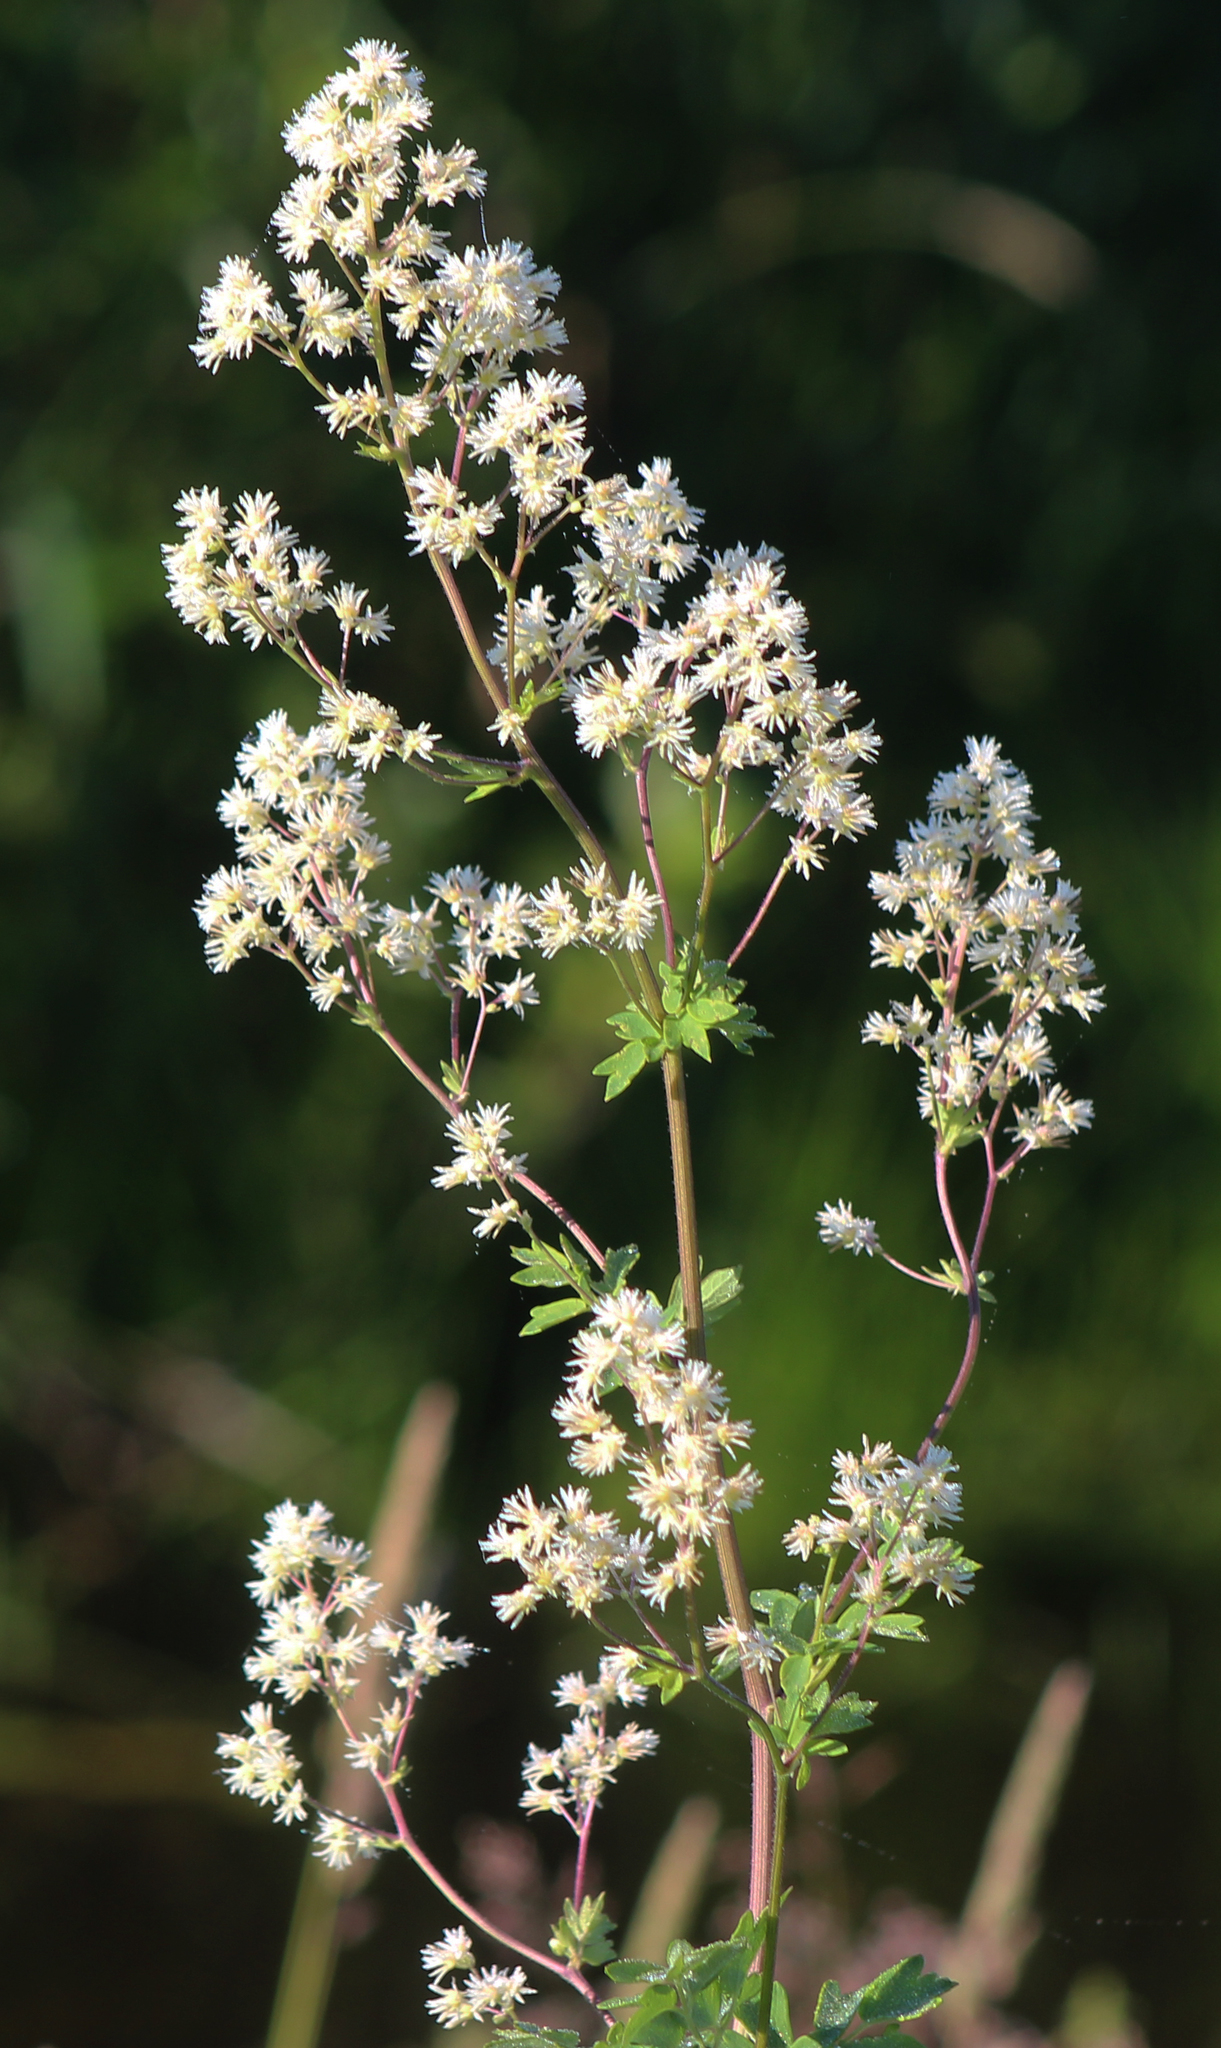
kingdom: Plantae
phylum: Tracheophyta
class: Magnoliopsida
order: Ranunculales
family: Ranunculaceae
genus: Thalictrum
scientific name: Thalictrum dasycarpum
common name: Purple meadow-rue
